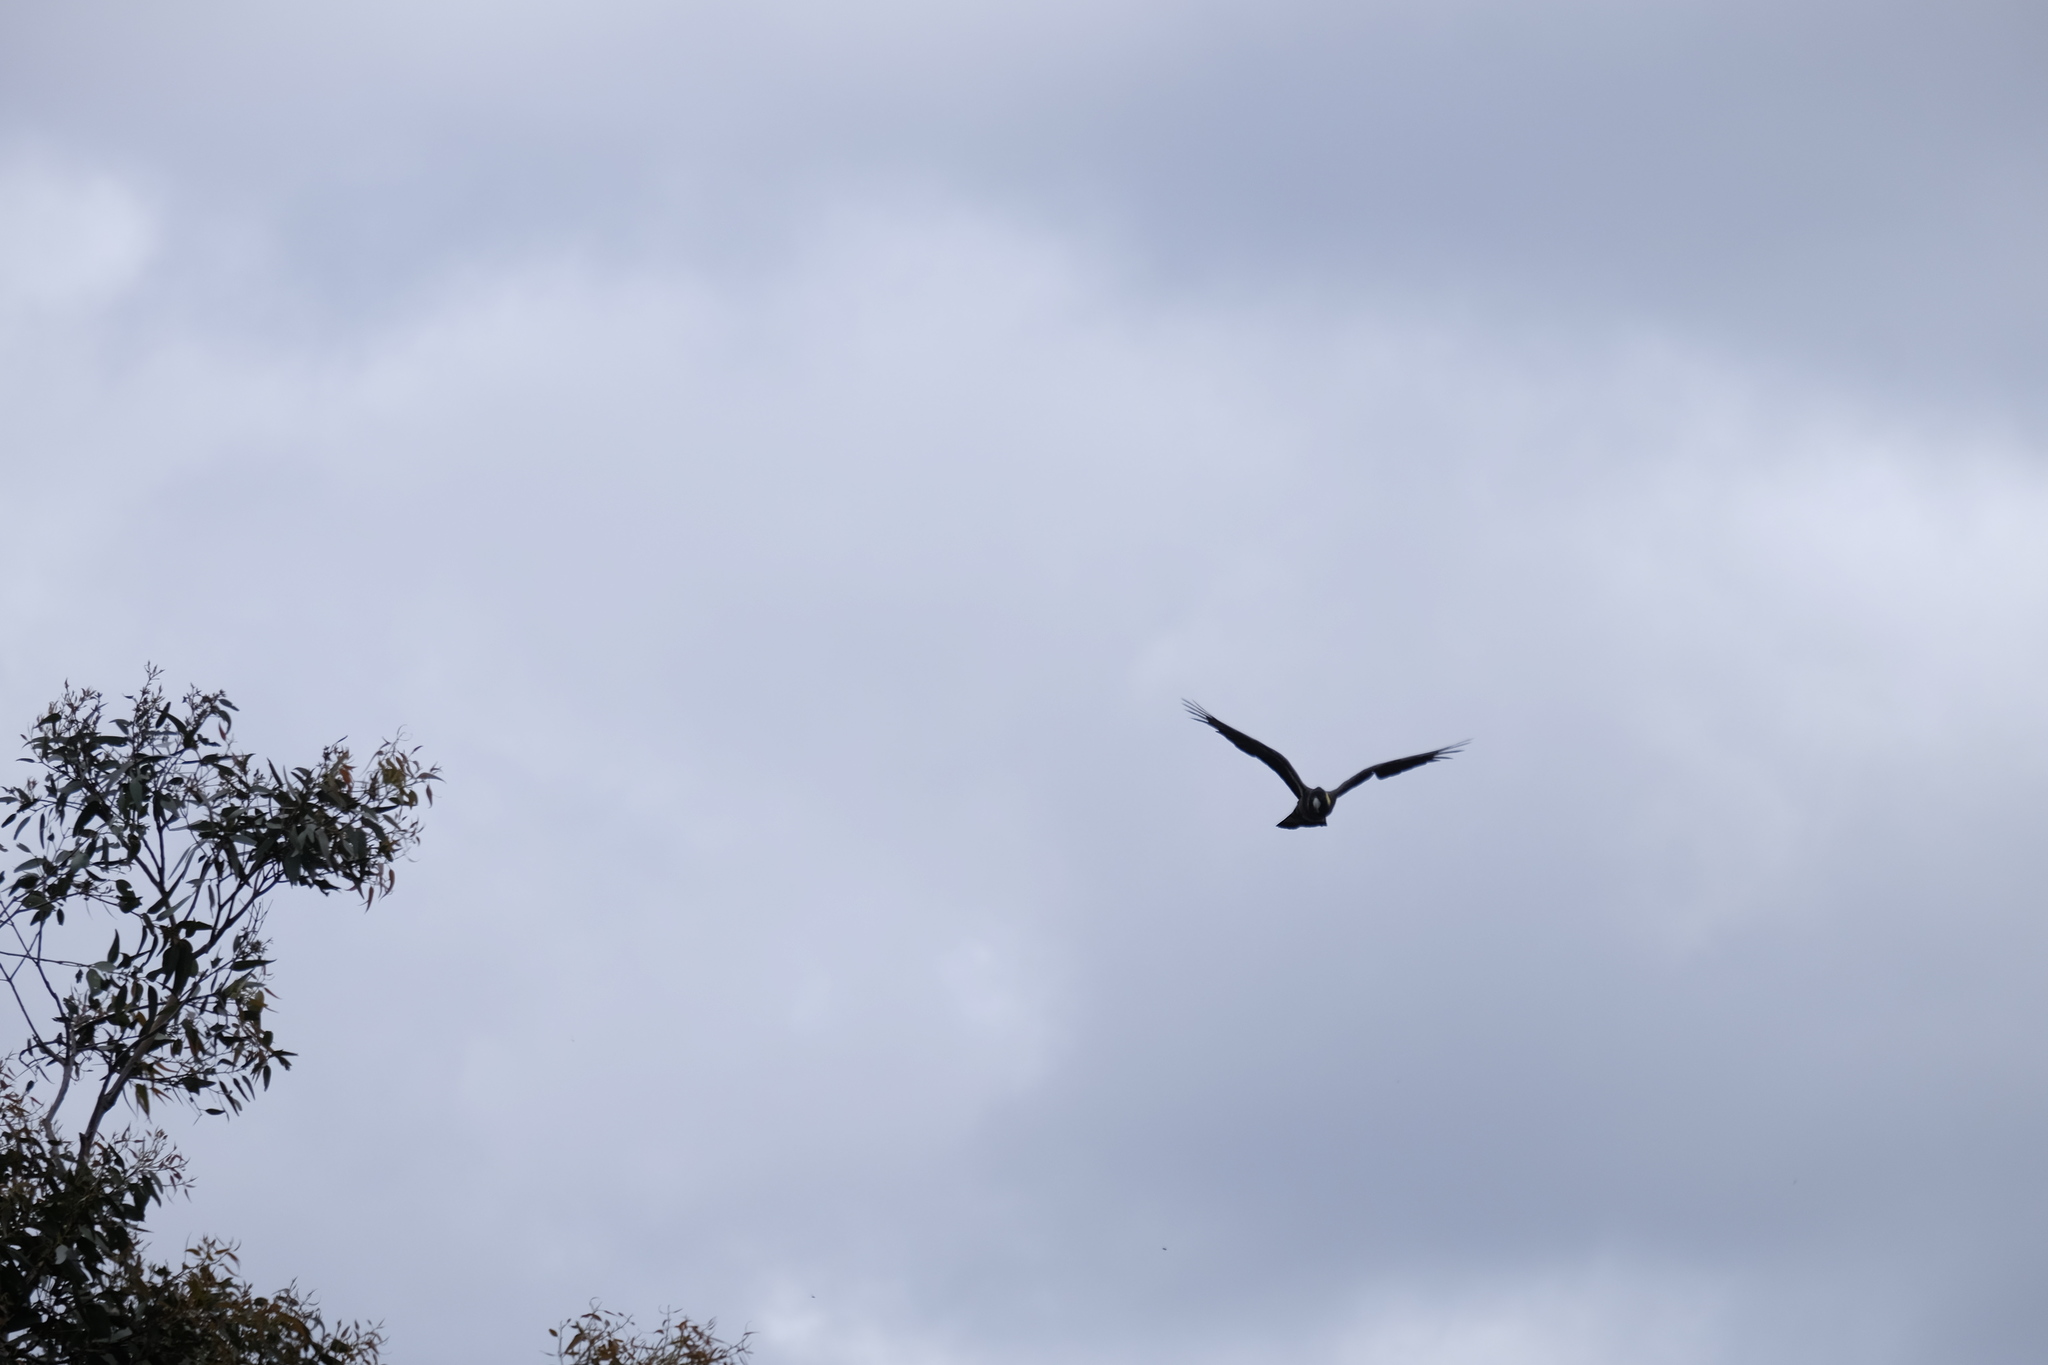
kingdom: Animalia
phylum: Chordata
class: Aves
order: Psittaciformes
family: Cacatuidae
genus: Zanda
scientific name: Zanda funerea
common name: Yellow-tailed black-cockatoo
